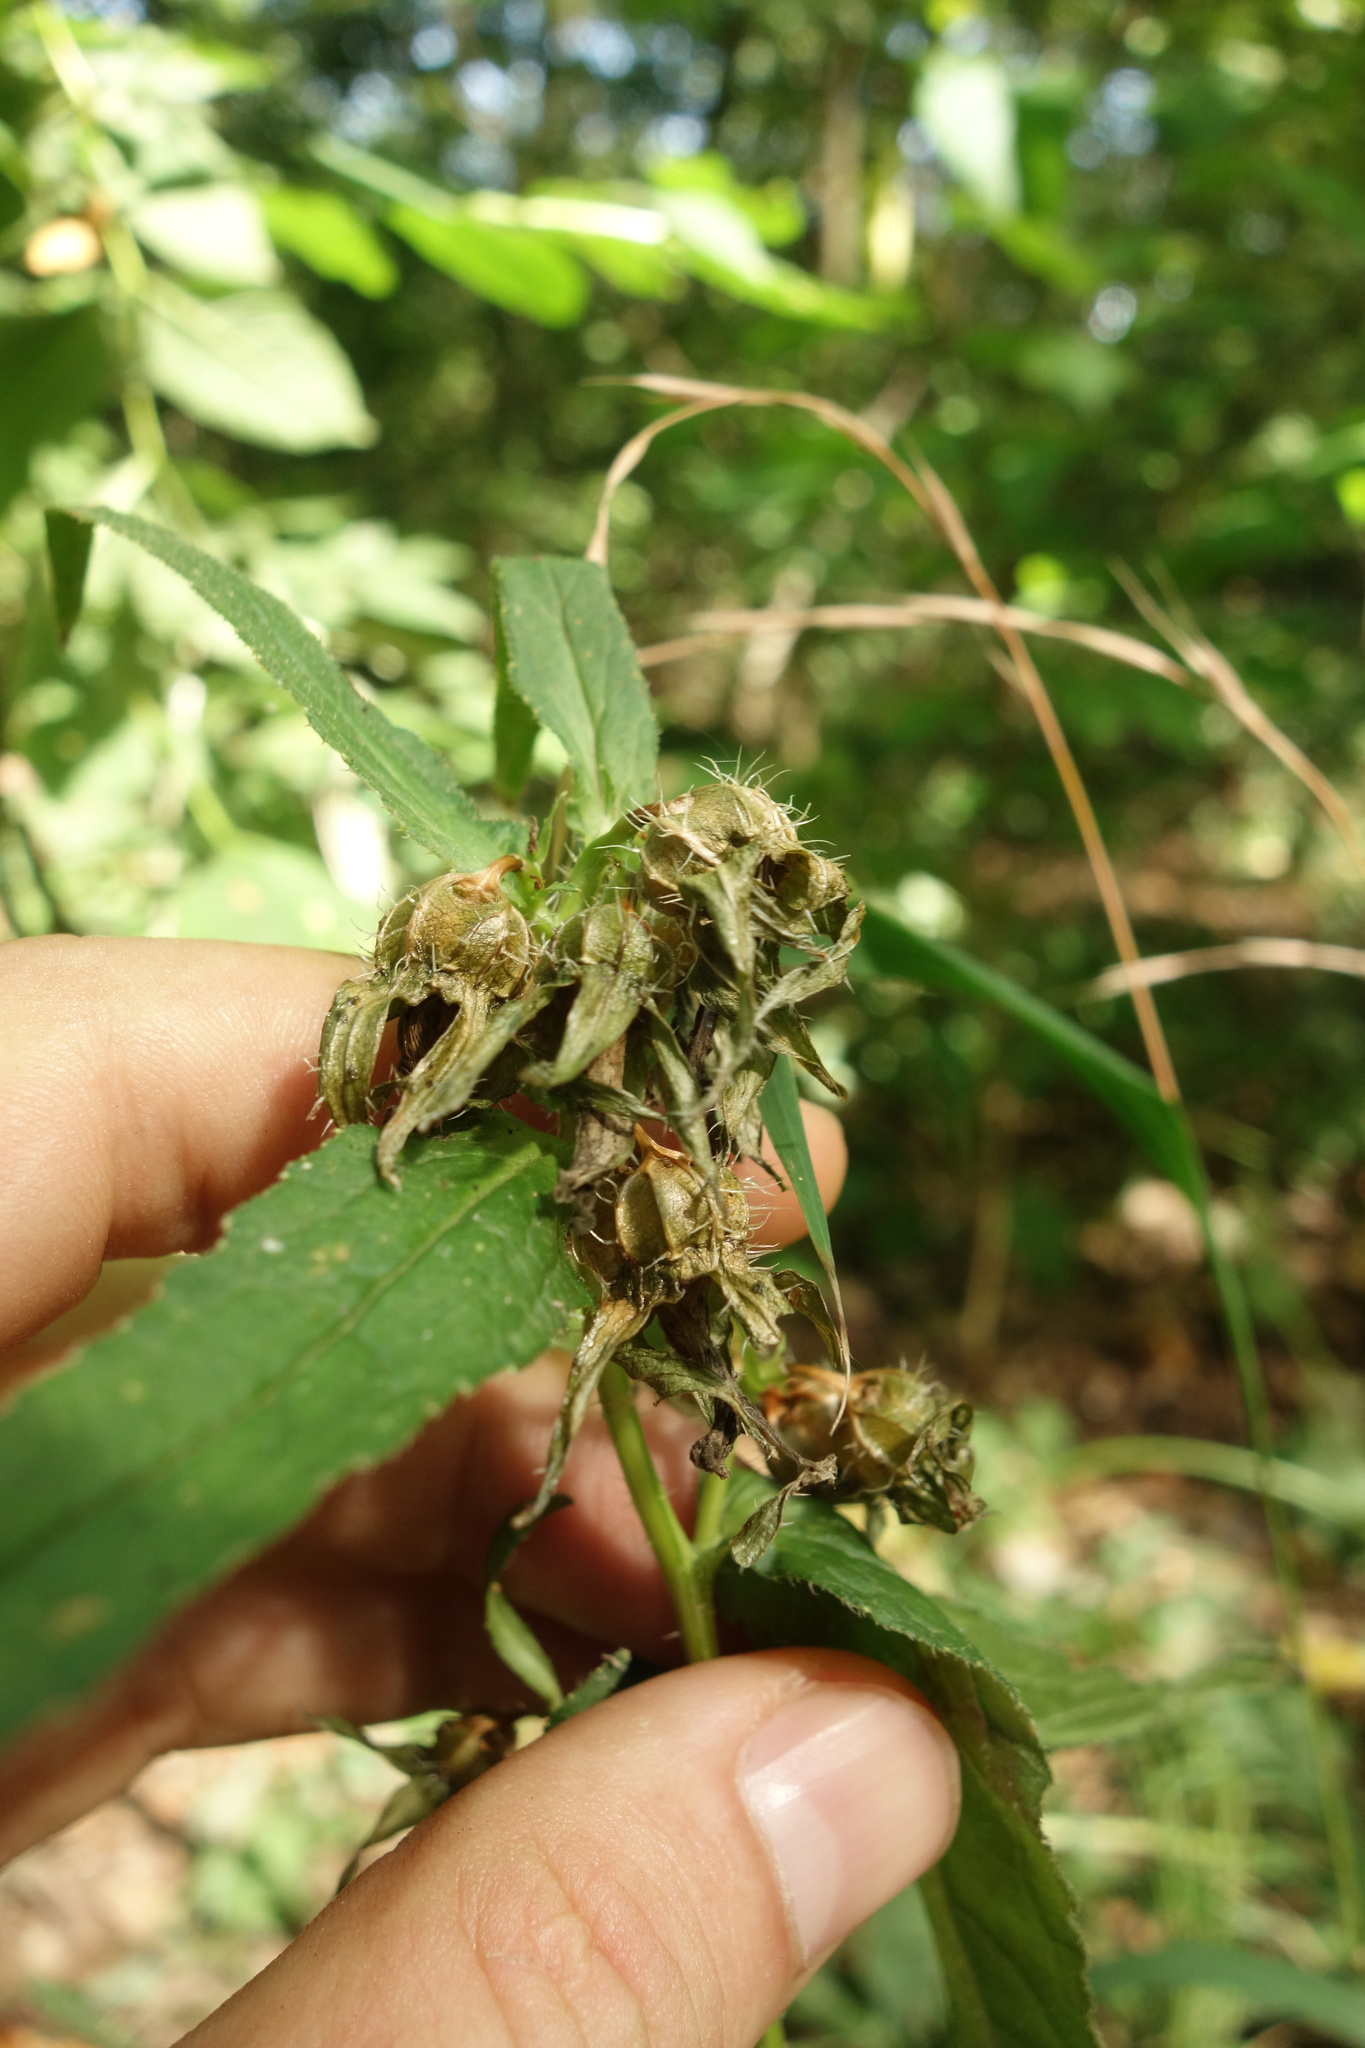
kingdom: Plantae
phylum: Tracheophyta
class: Magnoliopsida
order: Asterales
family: Campanulaceae
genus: Campanula
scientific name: Campanula trachelium
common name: Nettle-leaved bellflower
